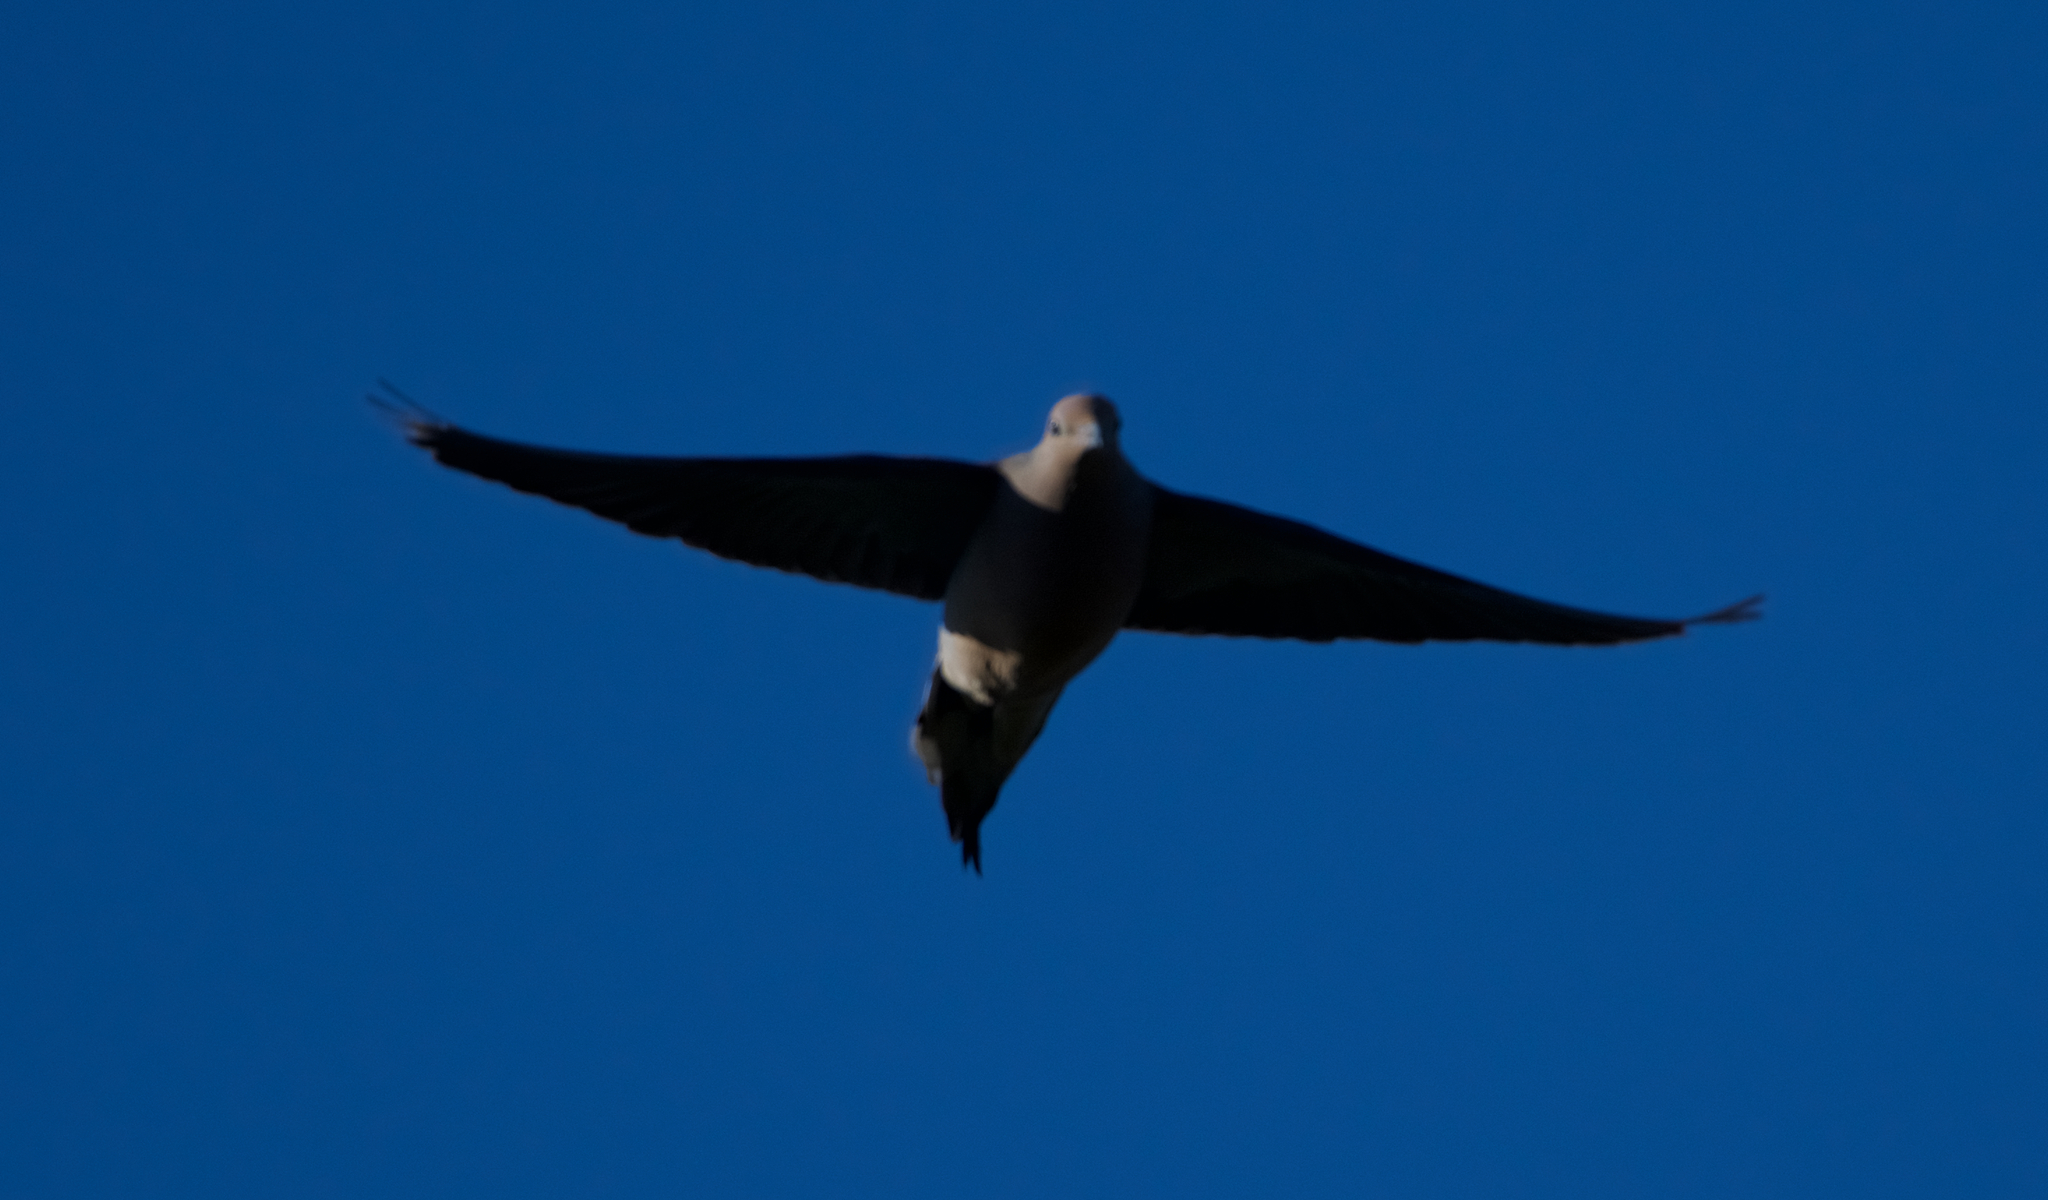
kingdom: Animalia
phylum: Chordata
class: Aves
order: Columbiformes
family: Columbidae
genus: Zenaida
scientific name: Zenaida macroura
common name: Mourning dove
